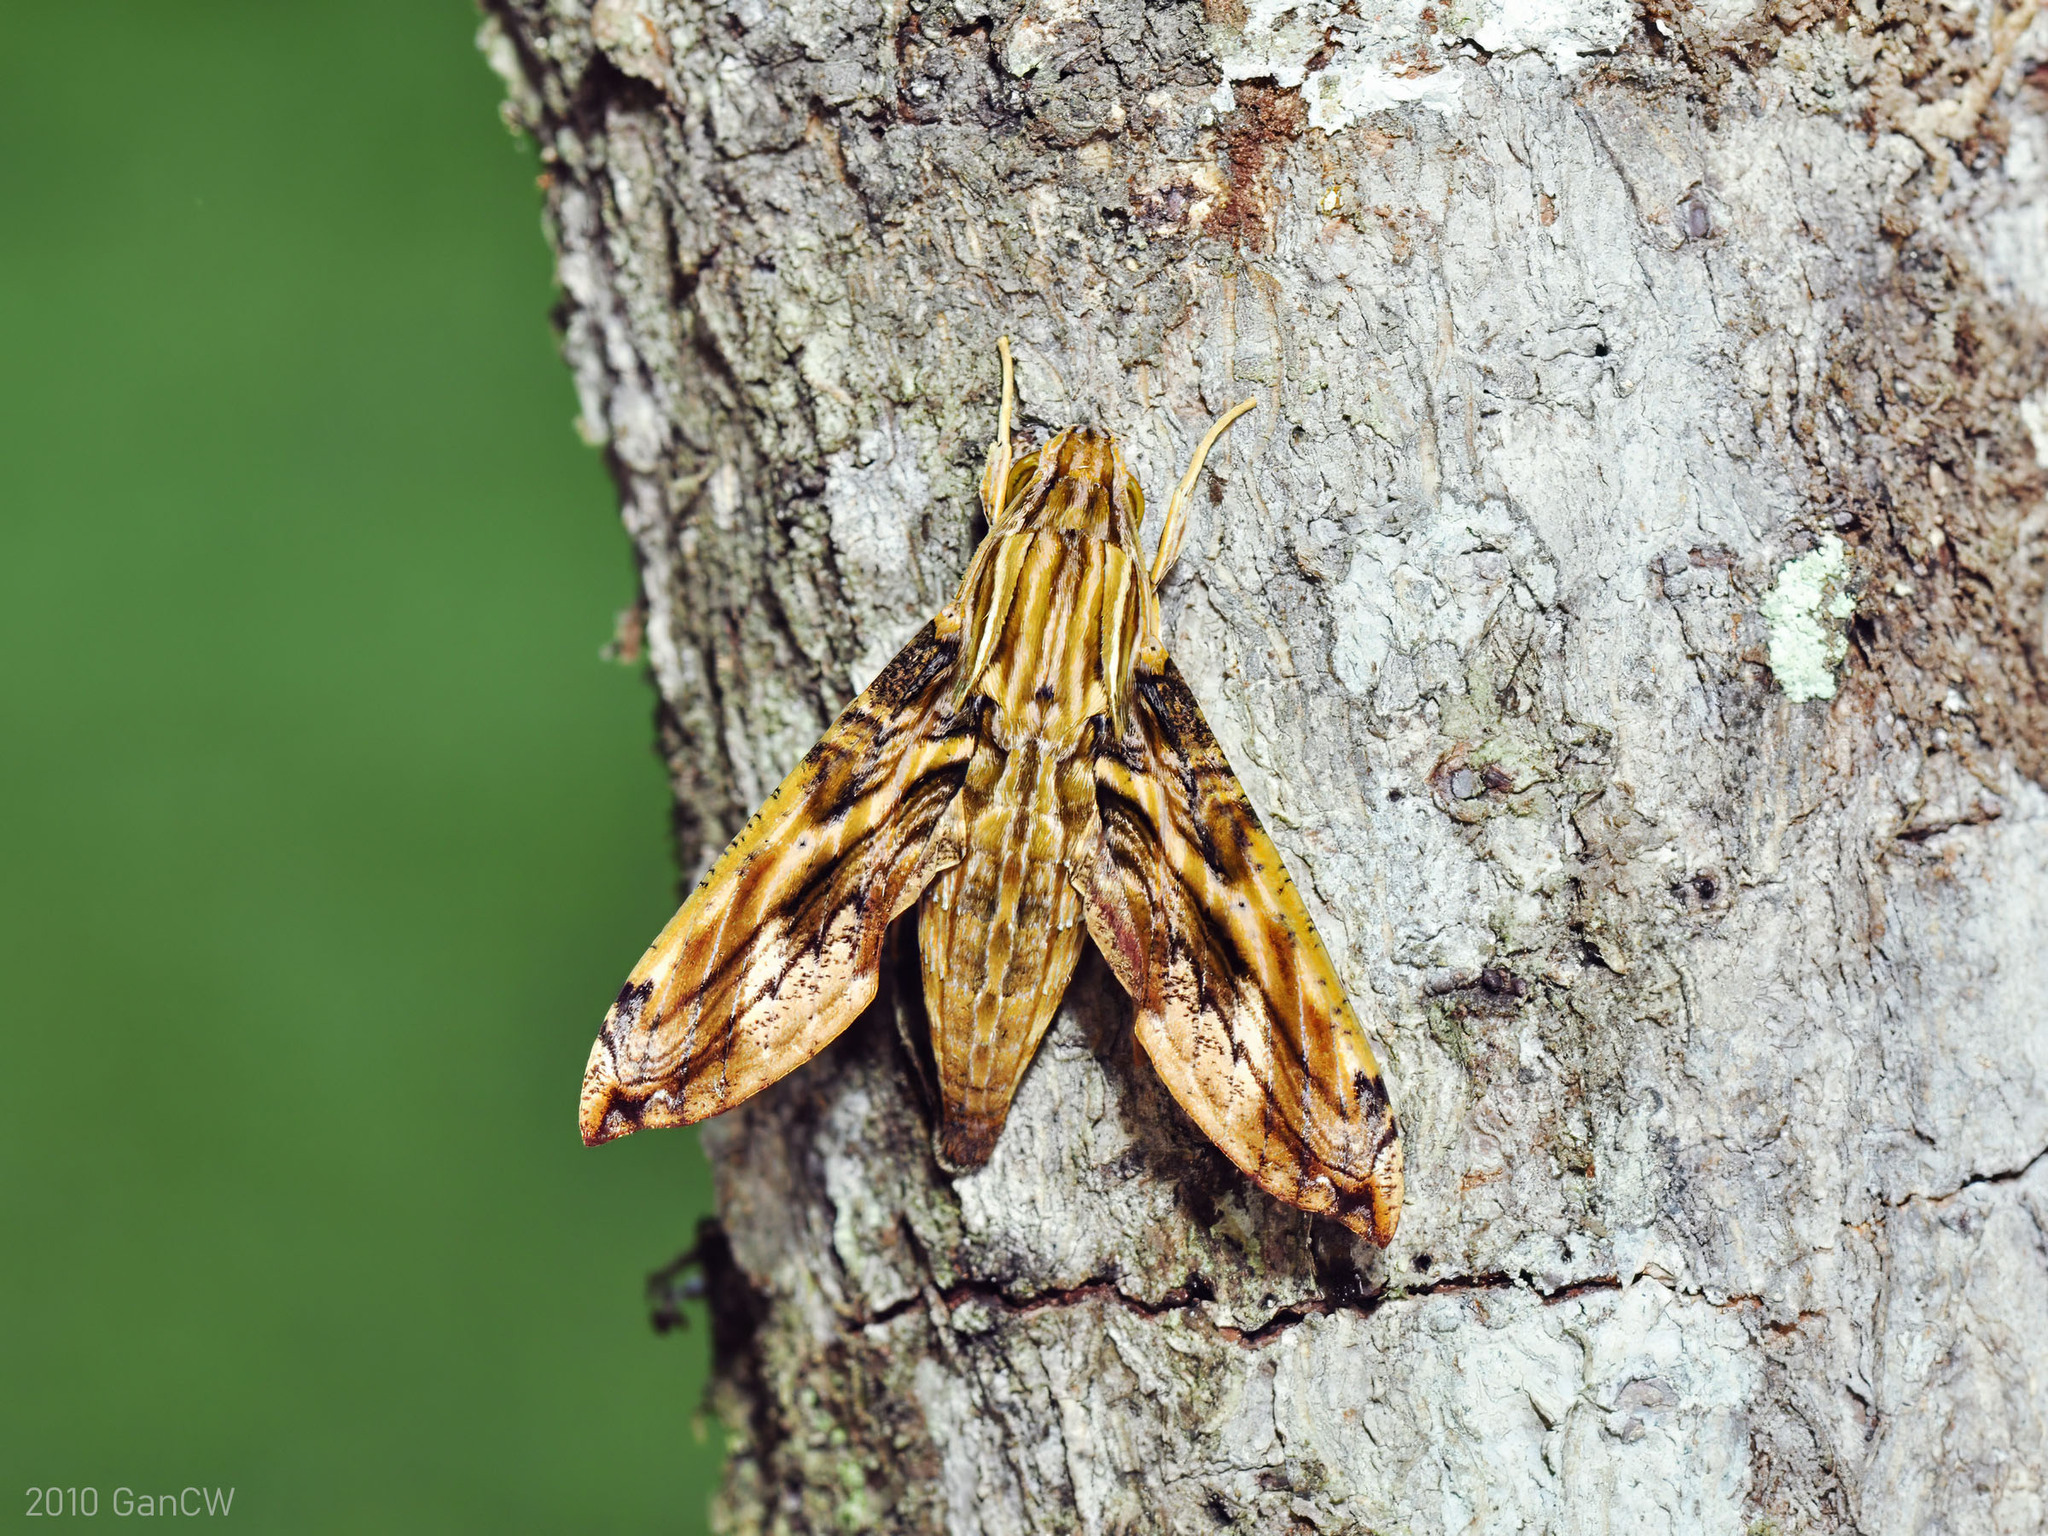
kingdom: Animalia
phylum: Arthropoda
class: Insecta
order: Lepidoptera
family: Sphingidae
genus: Eupanacra
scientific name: Eupanacra variolosa
